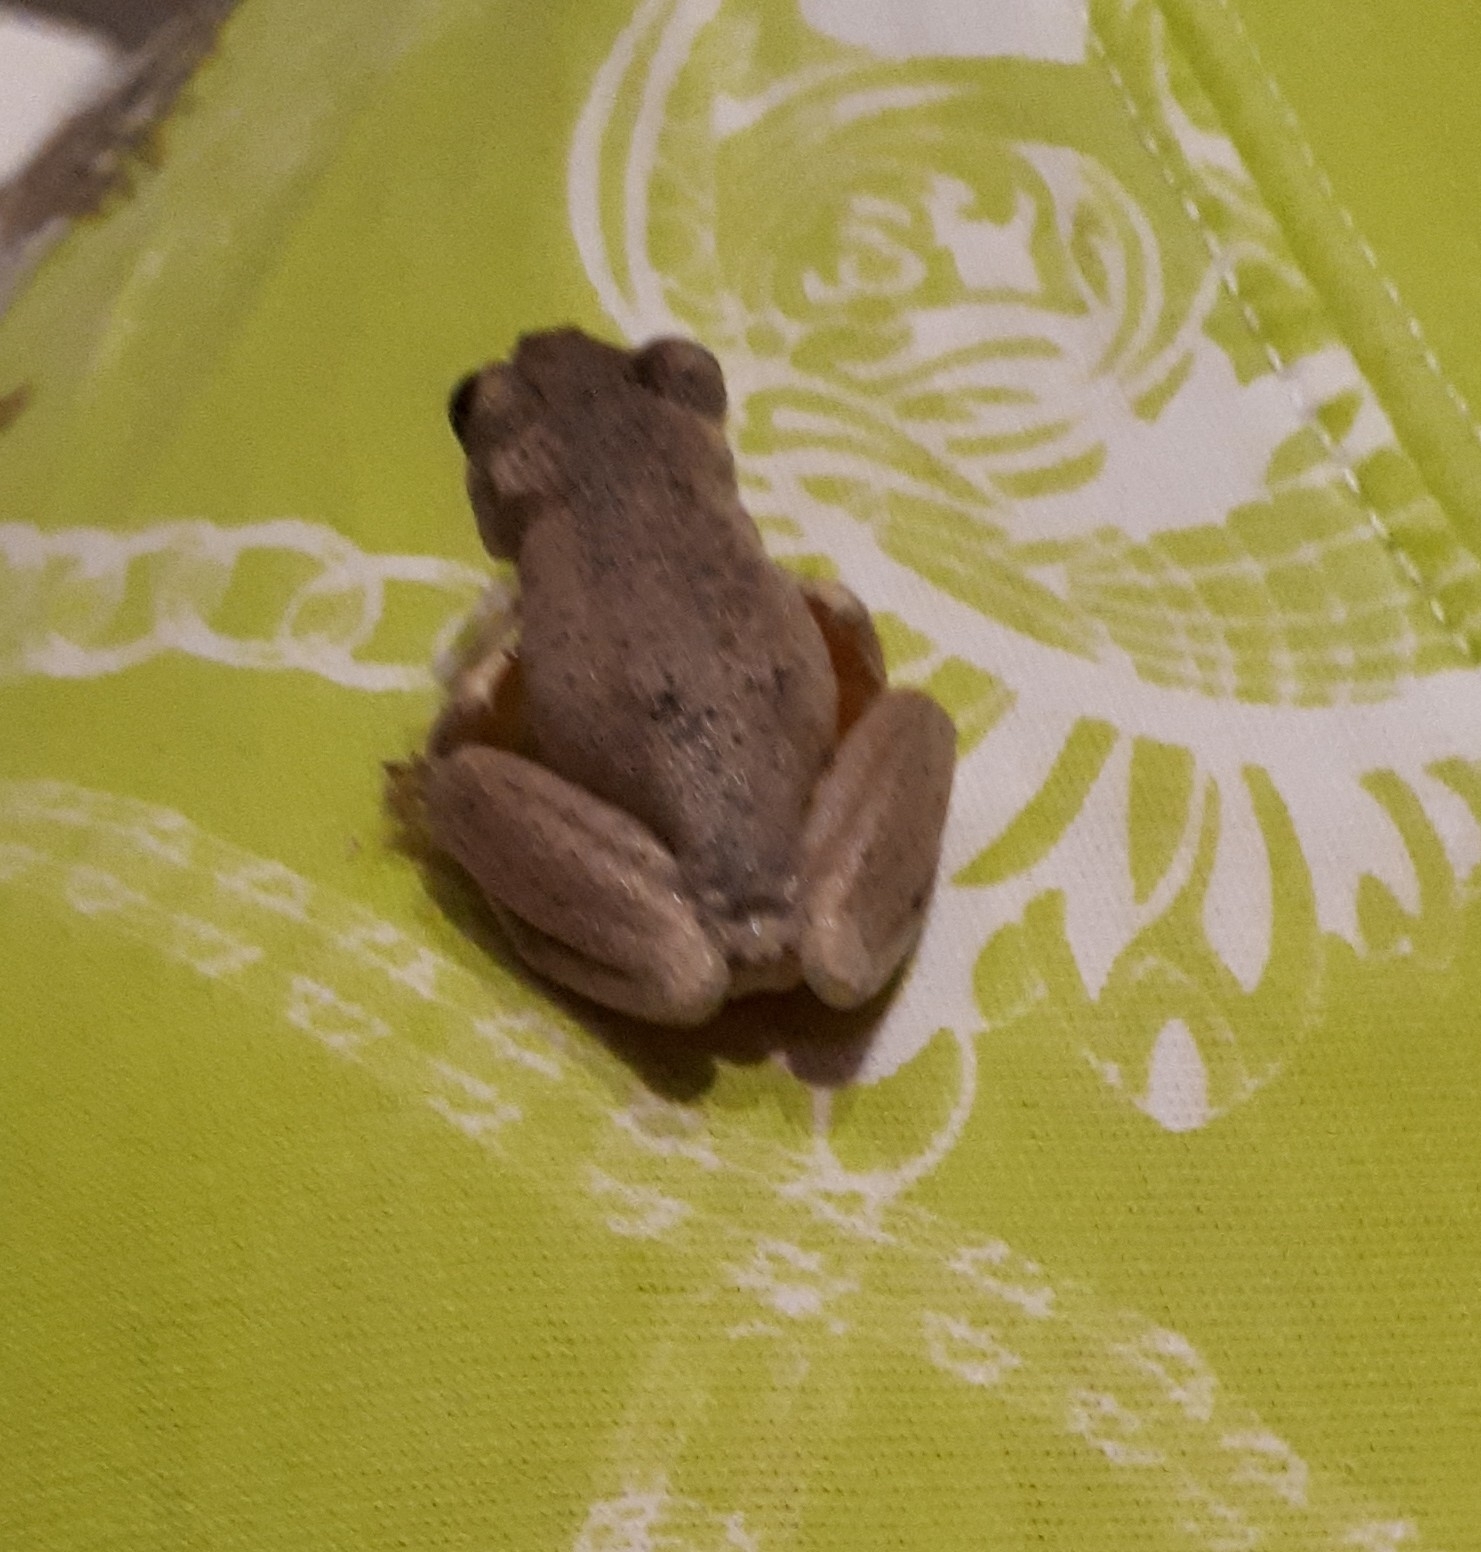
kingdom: Animalia
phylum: Chordata
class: Amphibia
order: Anura
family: Pelodryadidae
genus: Litoria
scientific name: Litoria peronii
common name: Emerald spotted treefrog
